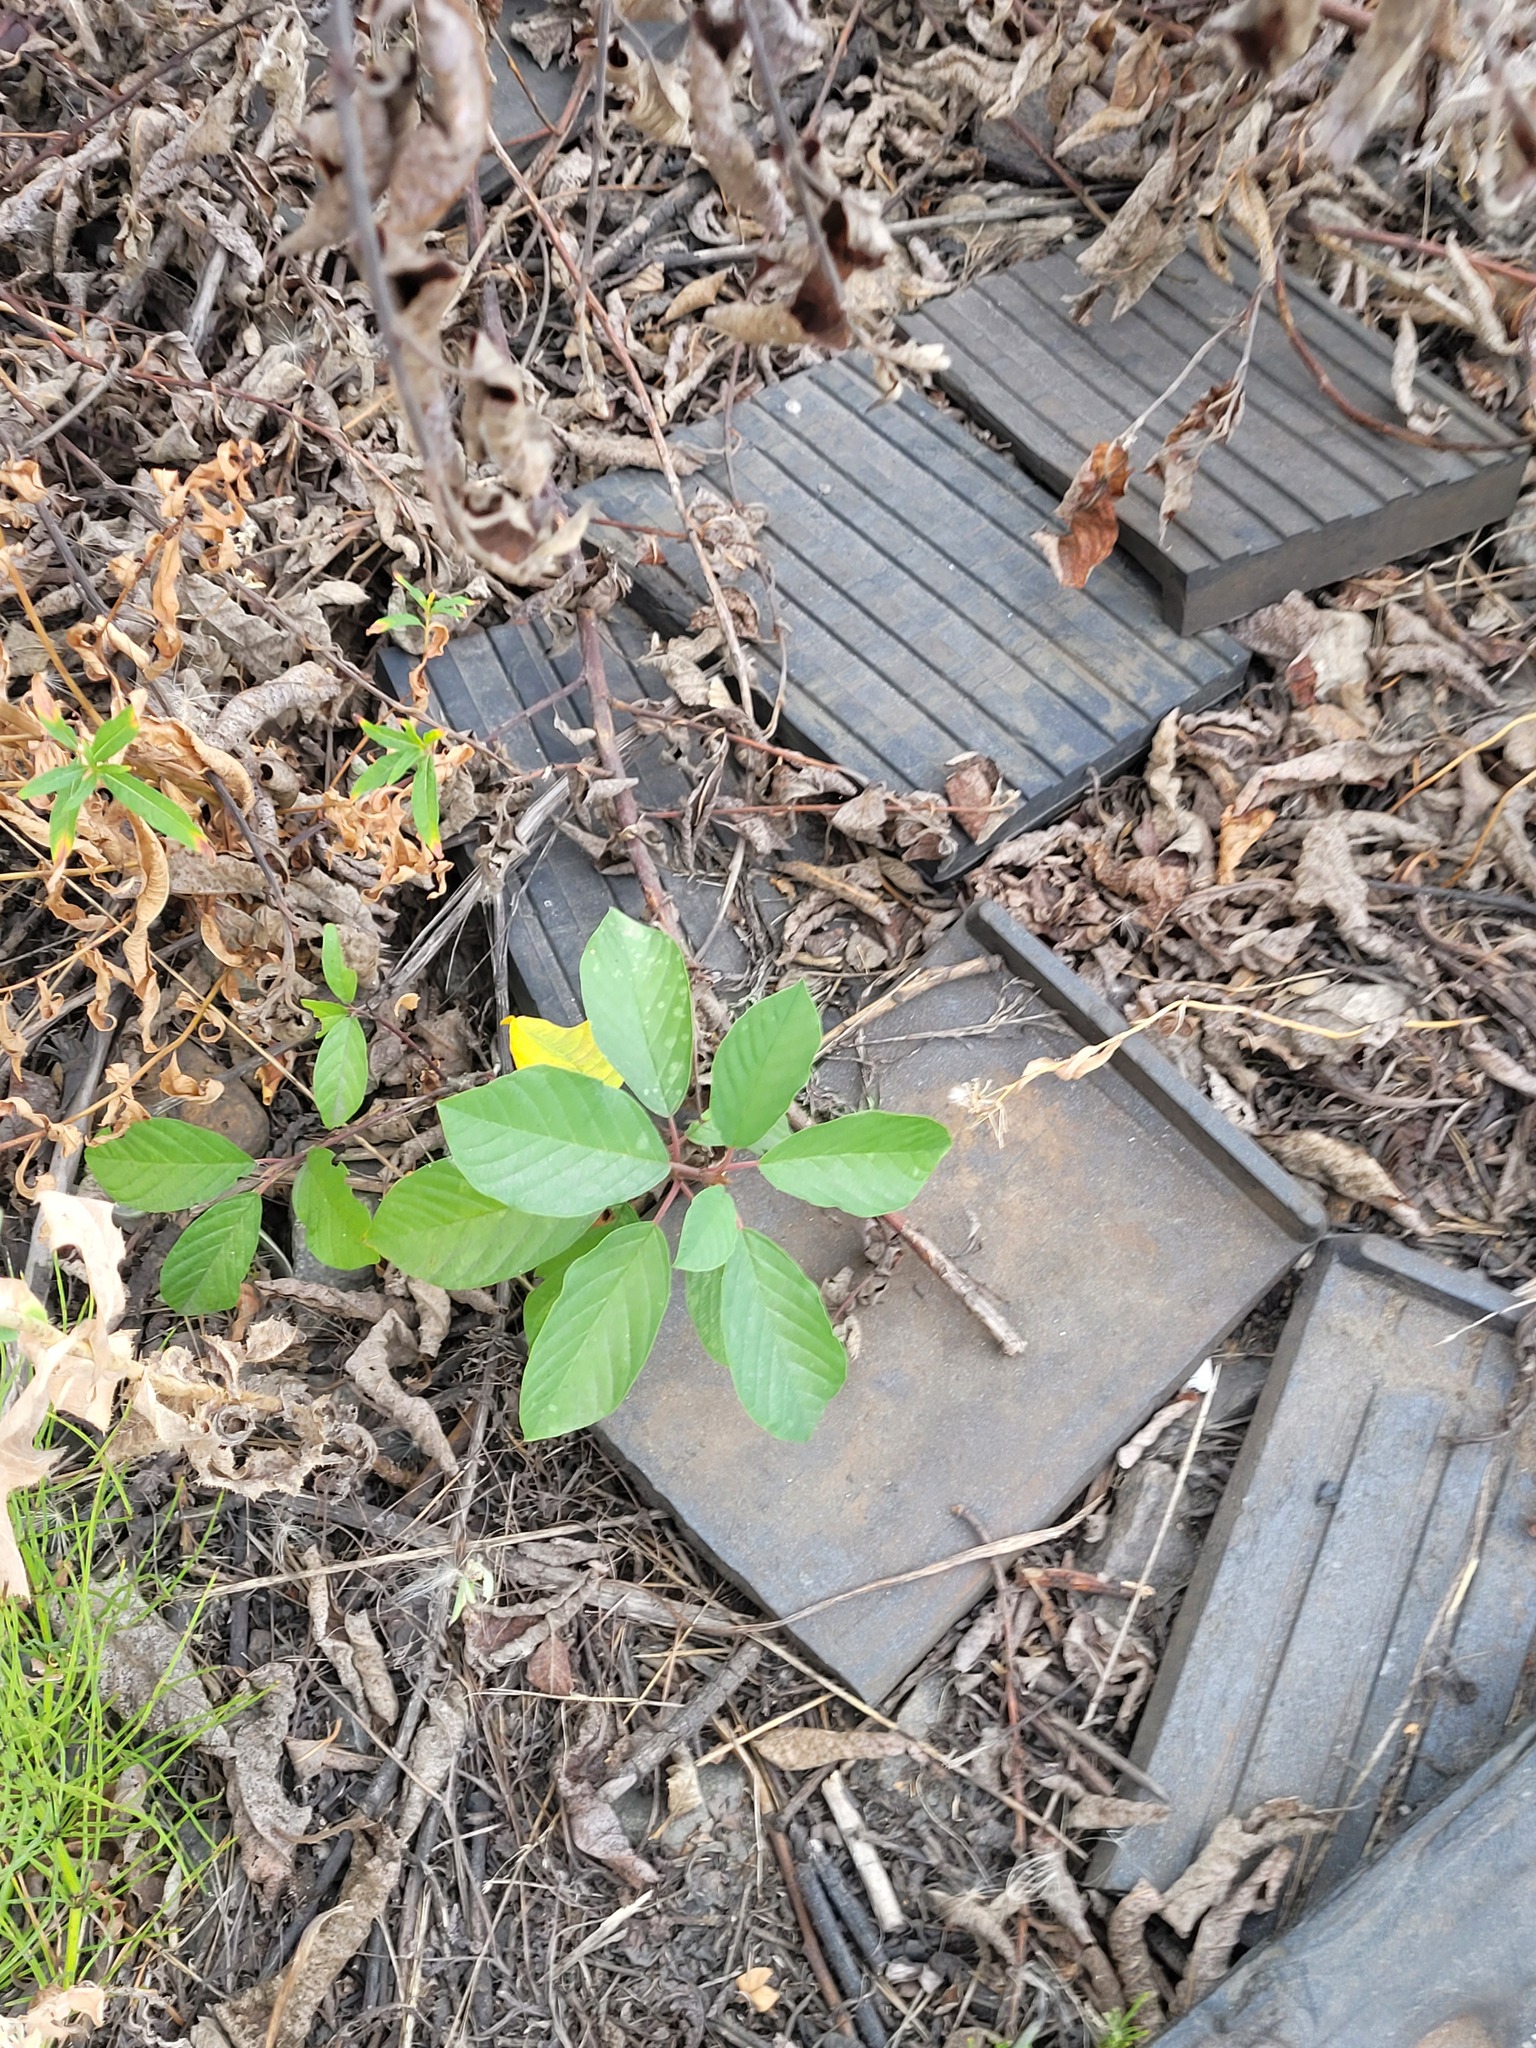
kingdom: Plantae
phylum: Tracheophyta
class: Magnoliopsida
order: Rosales
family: Rhamnaceae
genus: Frangula
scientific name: Frangula alnus
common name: Alder buckthorn
